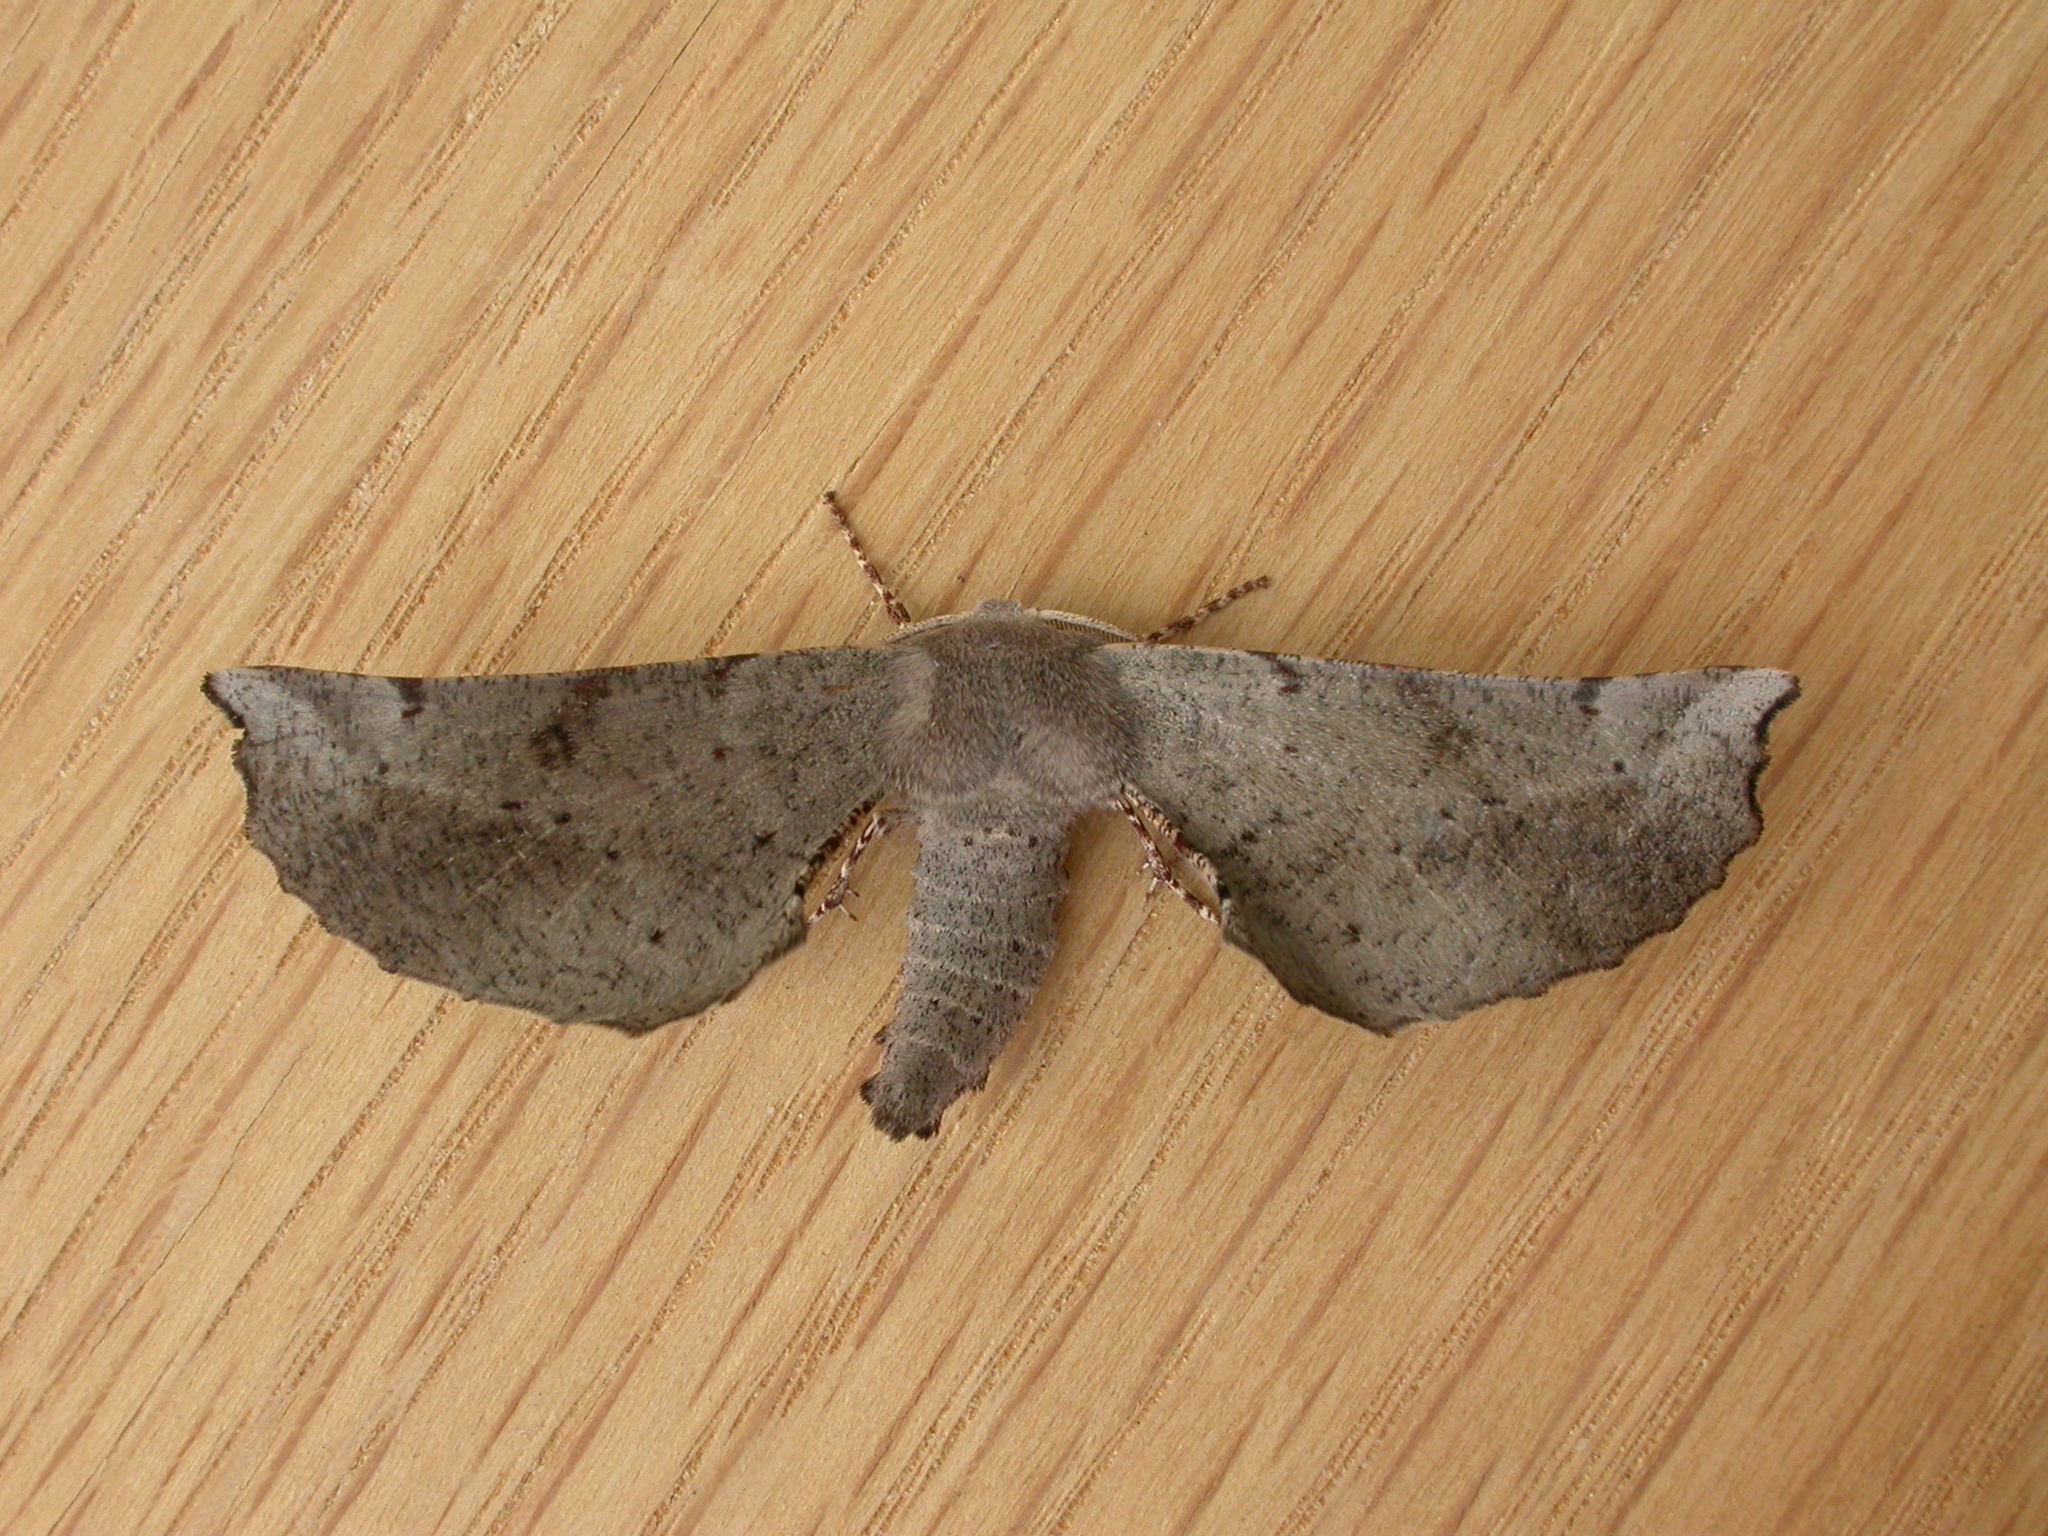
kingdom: Animalia
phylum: Arthropoda
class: Insecta
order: Lepidoptera
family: Geometridae
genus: Circopetes
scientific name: Circopetes obtusata
